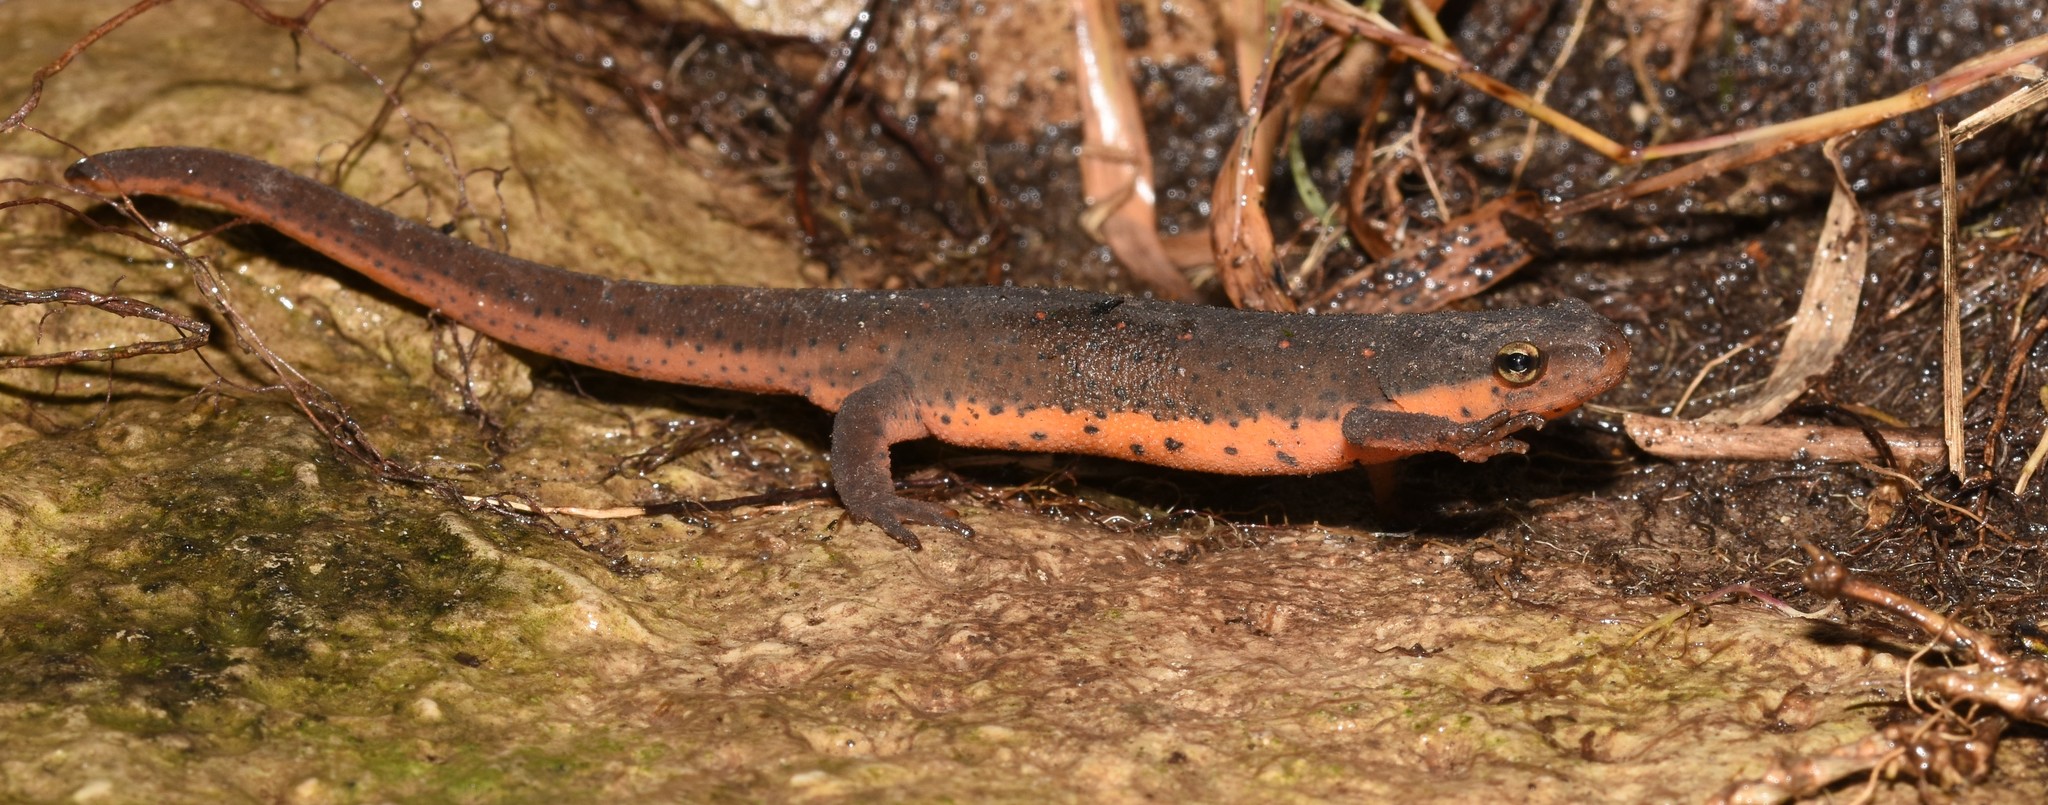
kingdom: Animalia
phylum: Chordata
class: Amphibia
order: Caudata
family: Salamandridae
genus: Notophthalmus
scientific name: Notophthalmus viridescens
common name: Eastern newt
